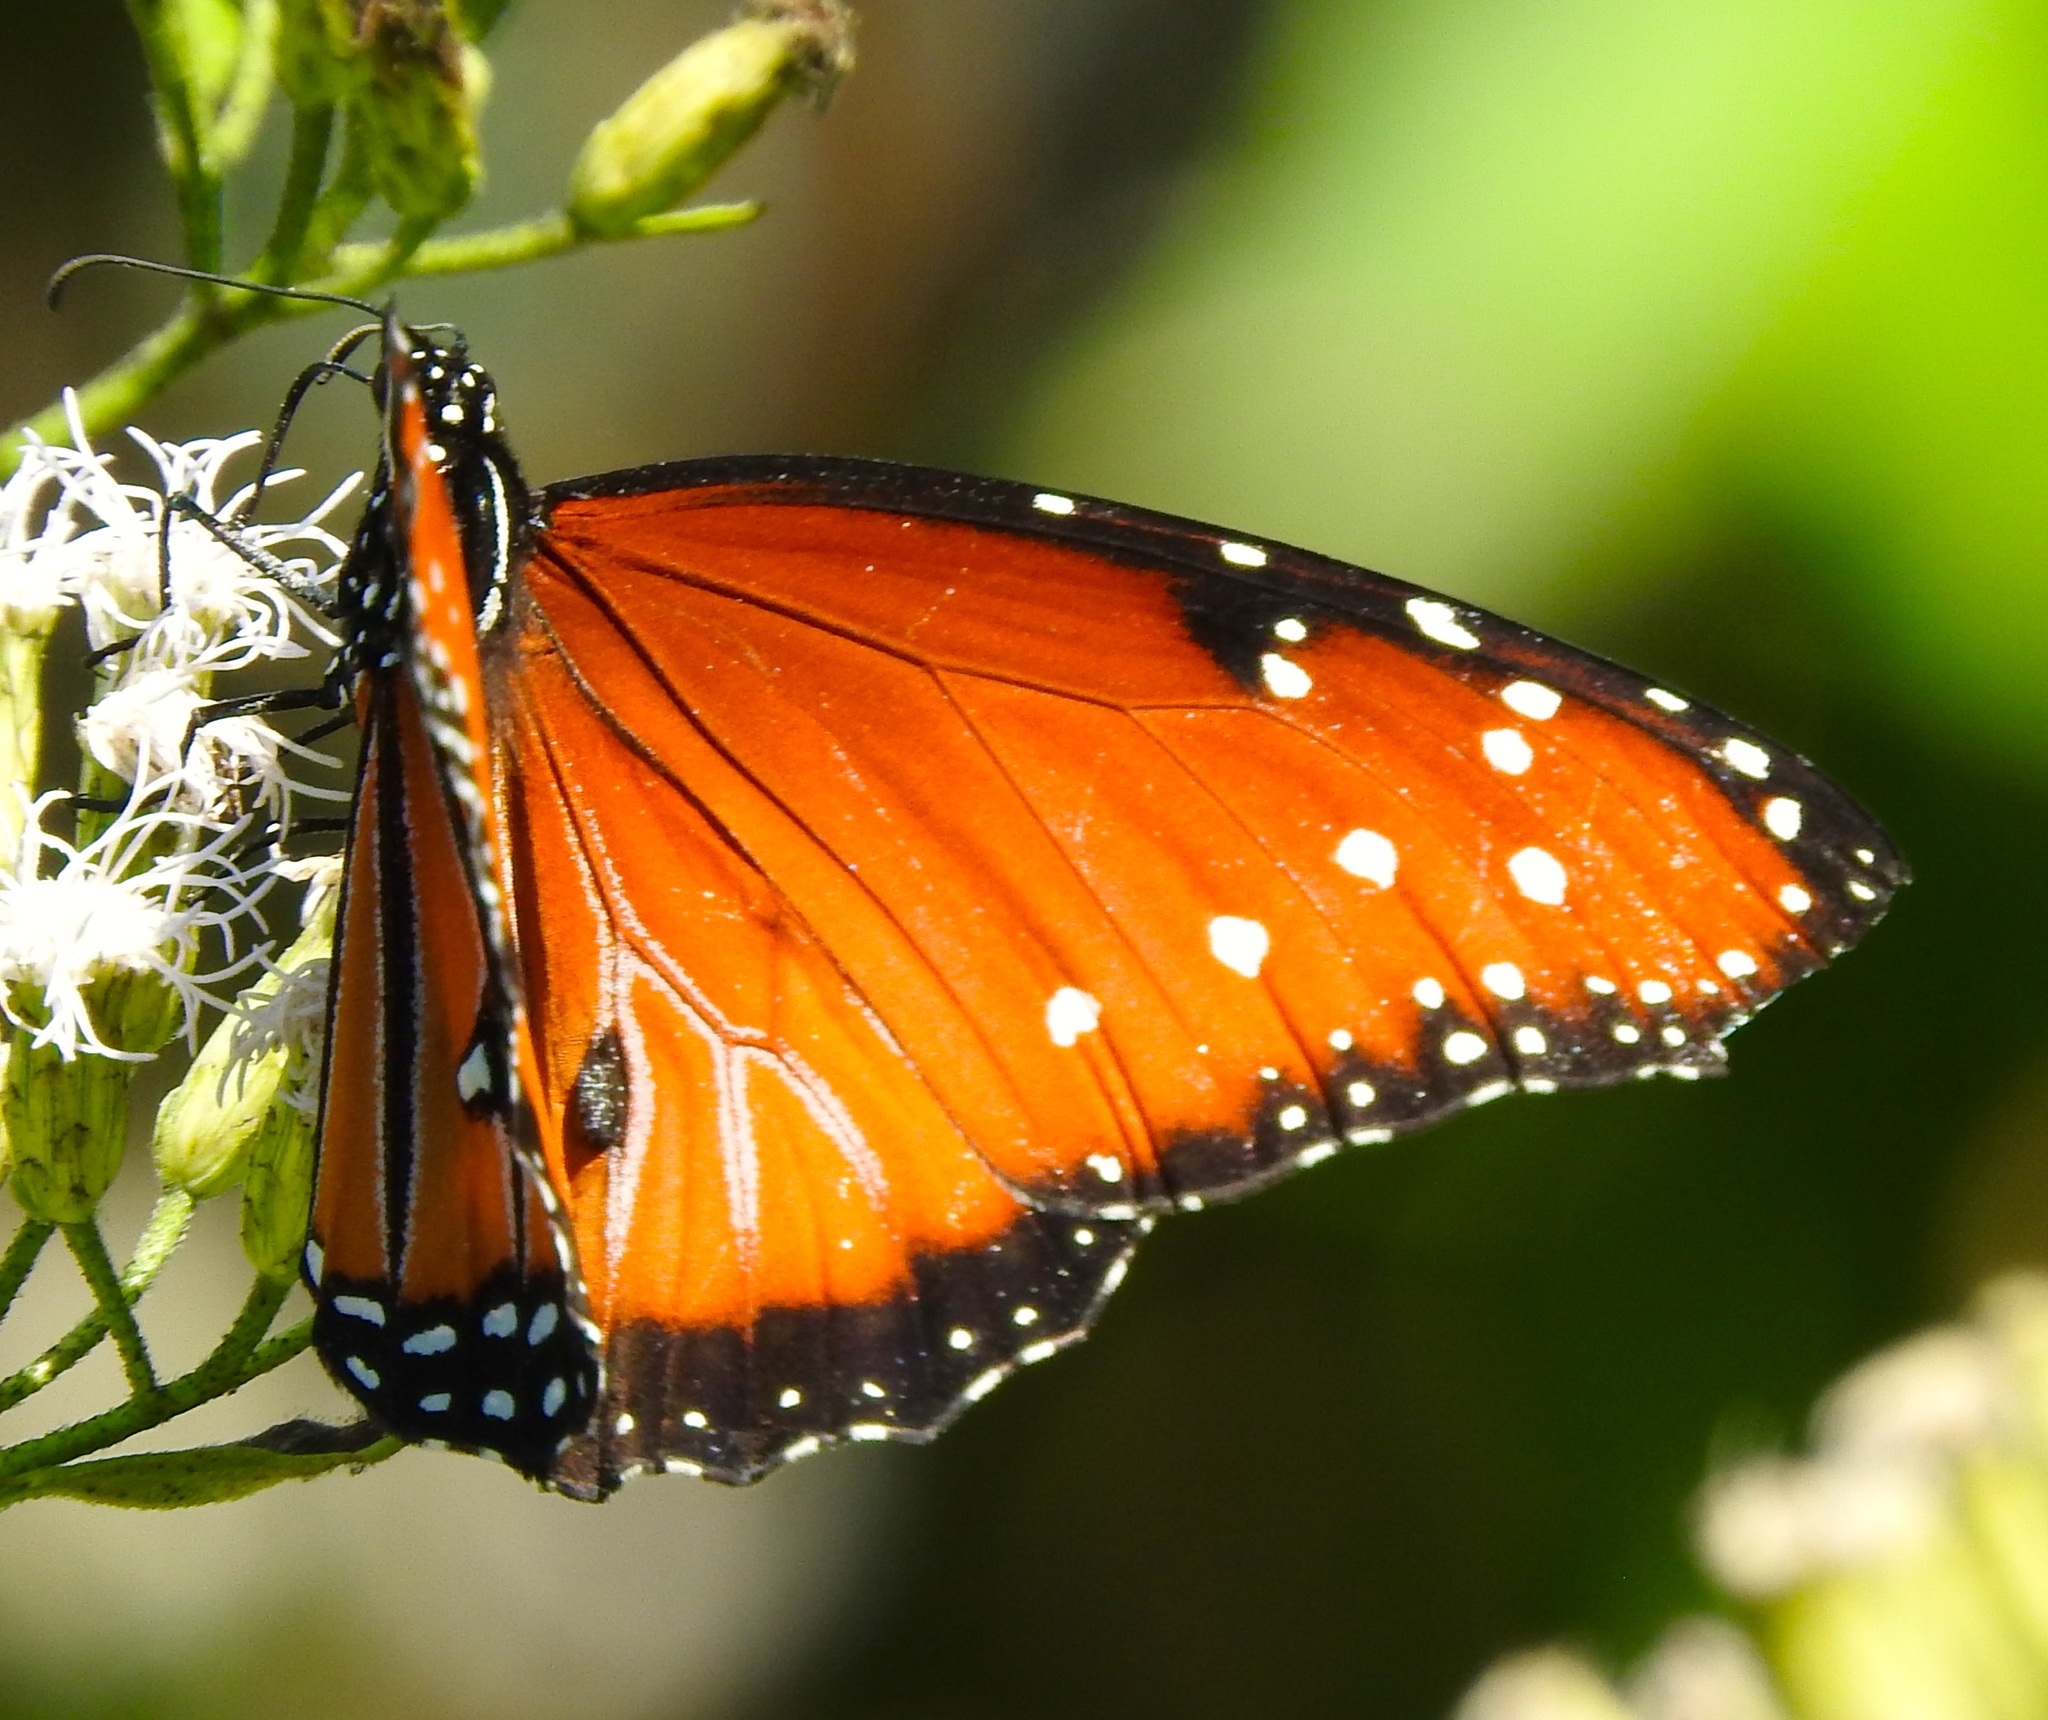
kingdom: Animalia
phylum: Arthropoda
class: Insecta
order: Lepidoptera
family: Nymphalidae
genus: Danaus
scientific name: Danaus gilippus
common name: Queen
